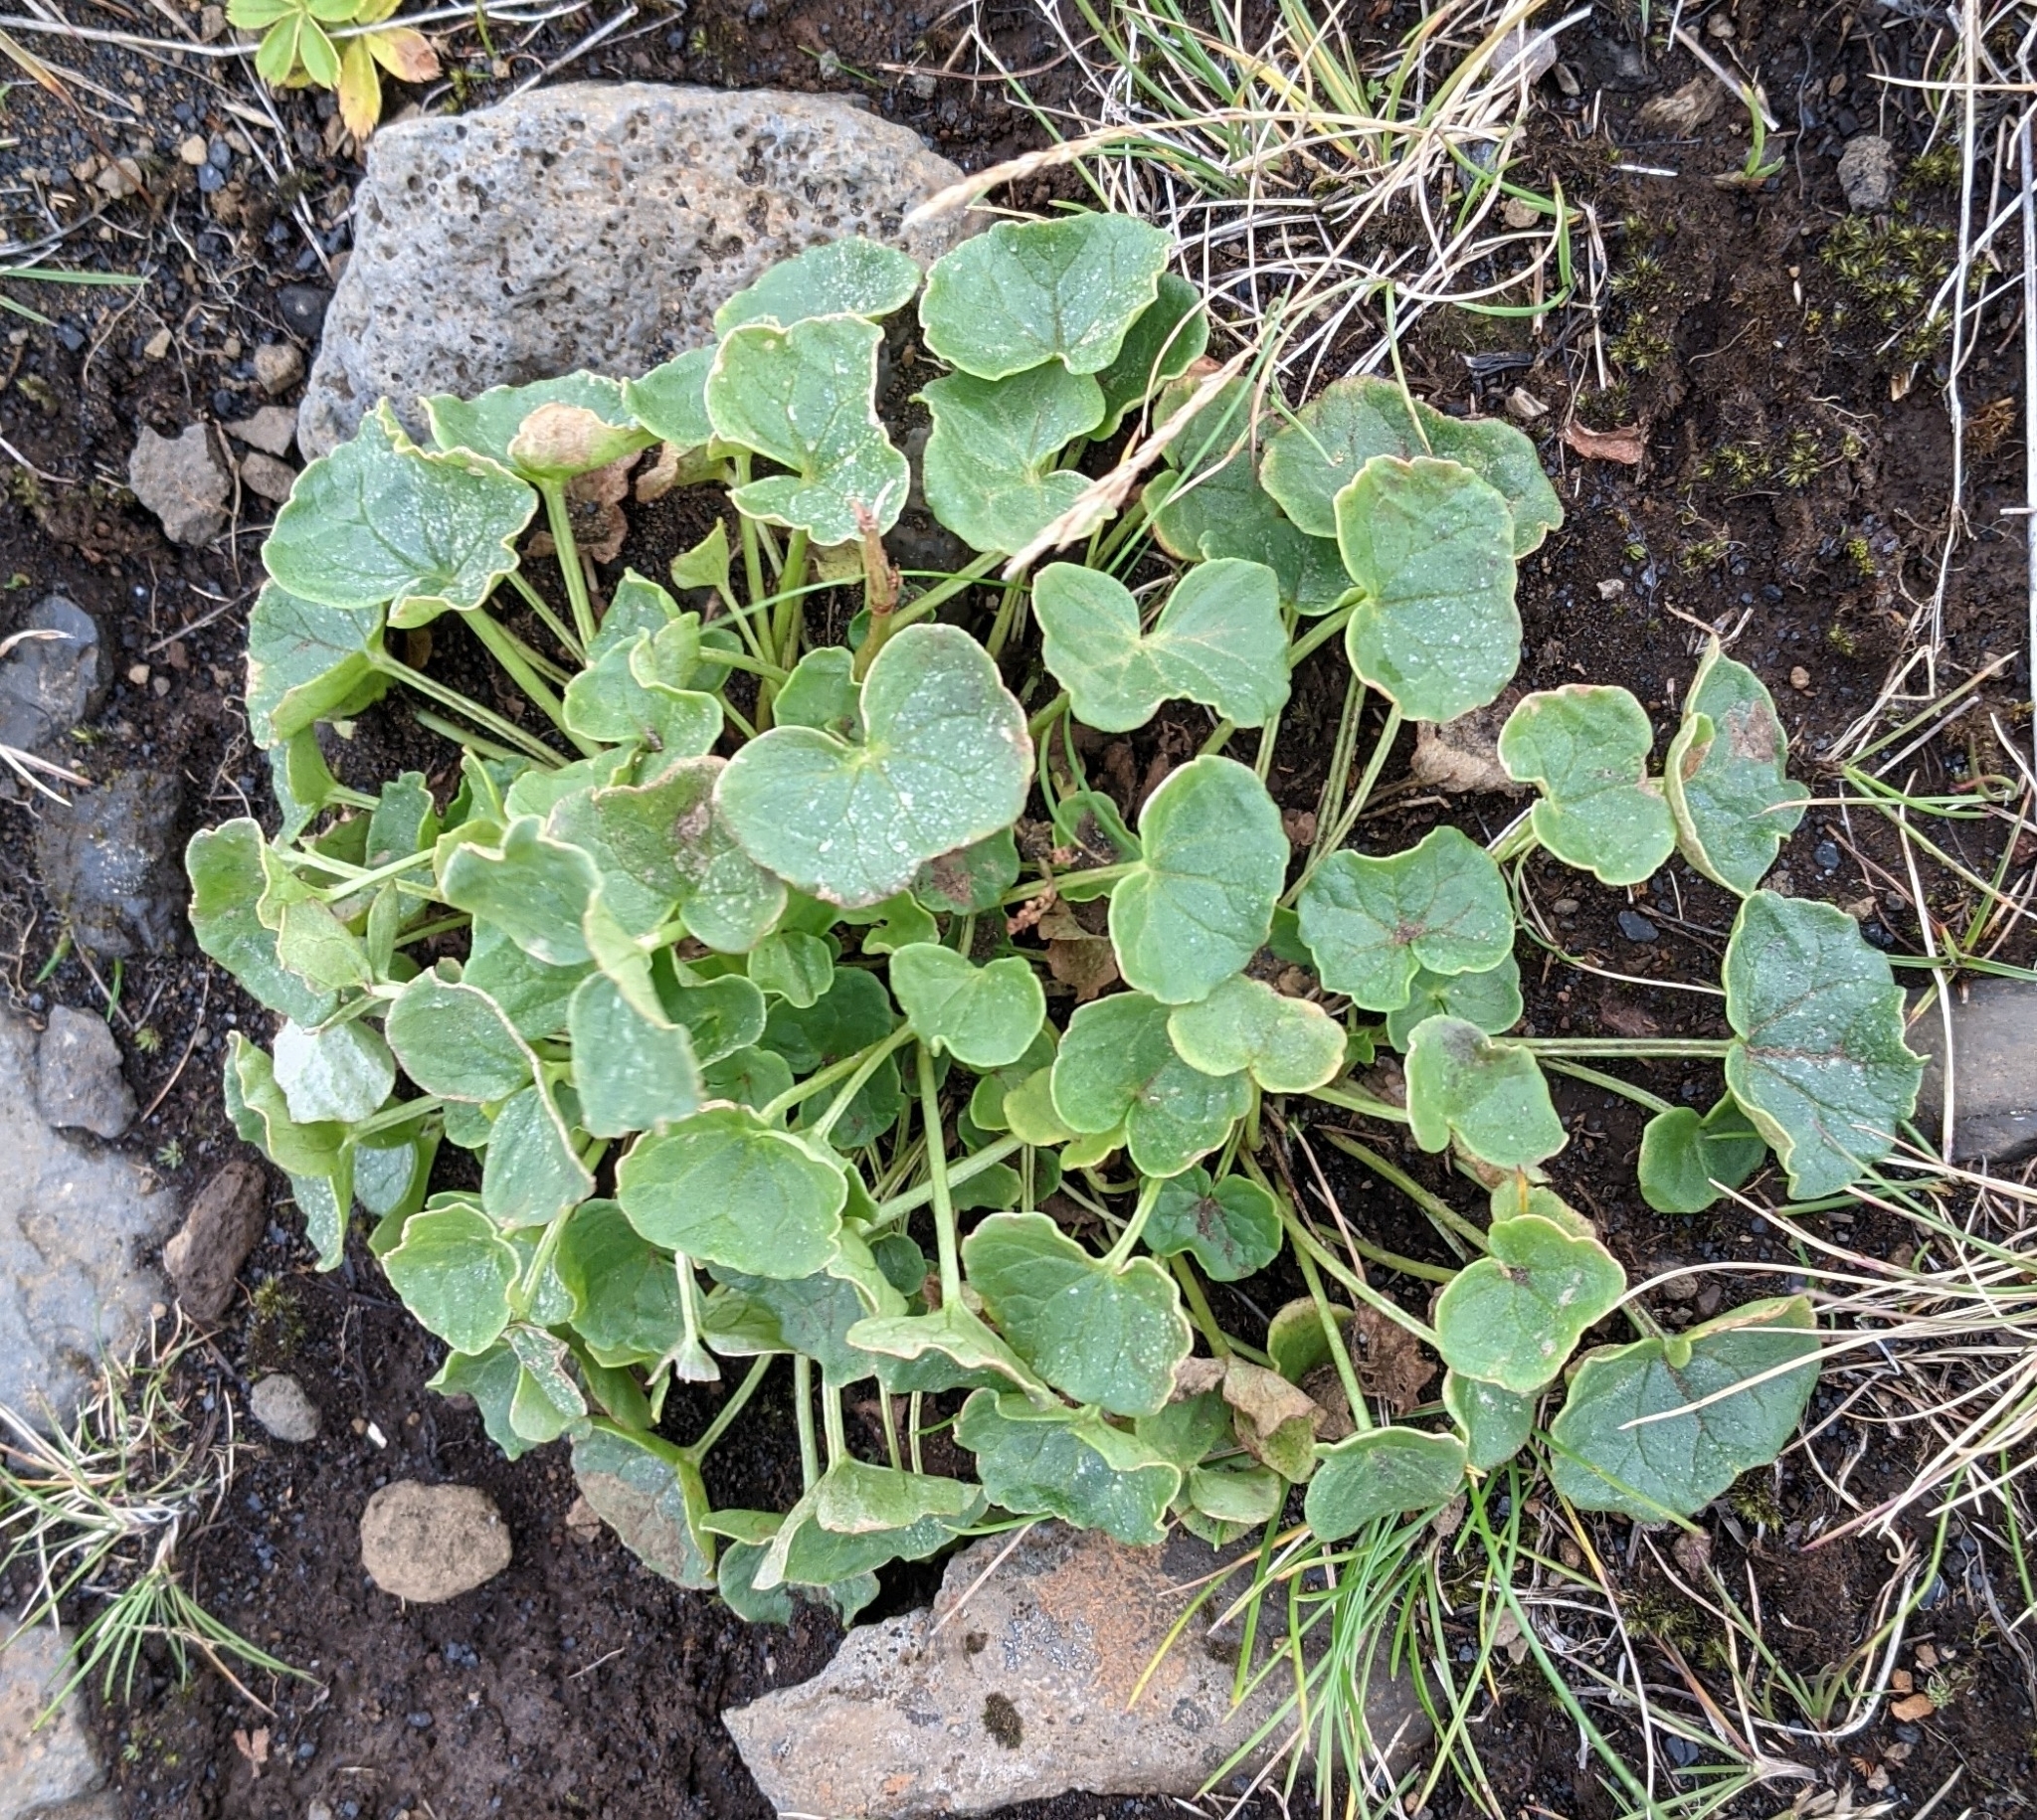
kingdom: Plantae
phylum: Tracheophyta
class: Magnoliopsida
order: Caryophyllales
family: Polygonaceae
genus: Oxyria
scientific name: Oxyria digyna
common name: Alpine mountain-sorrel
